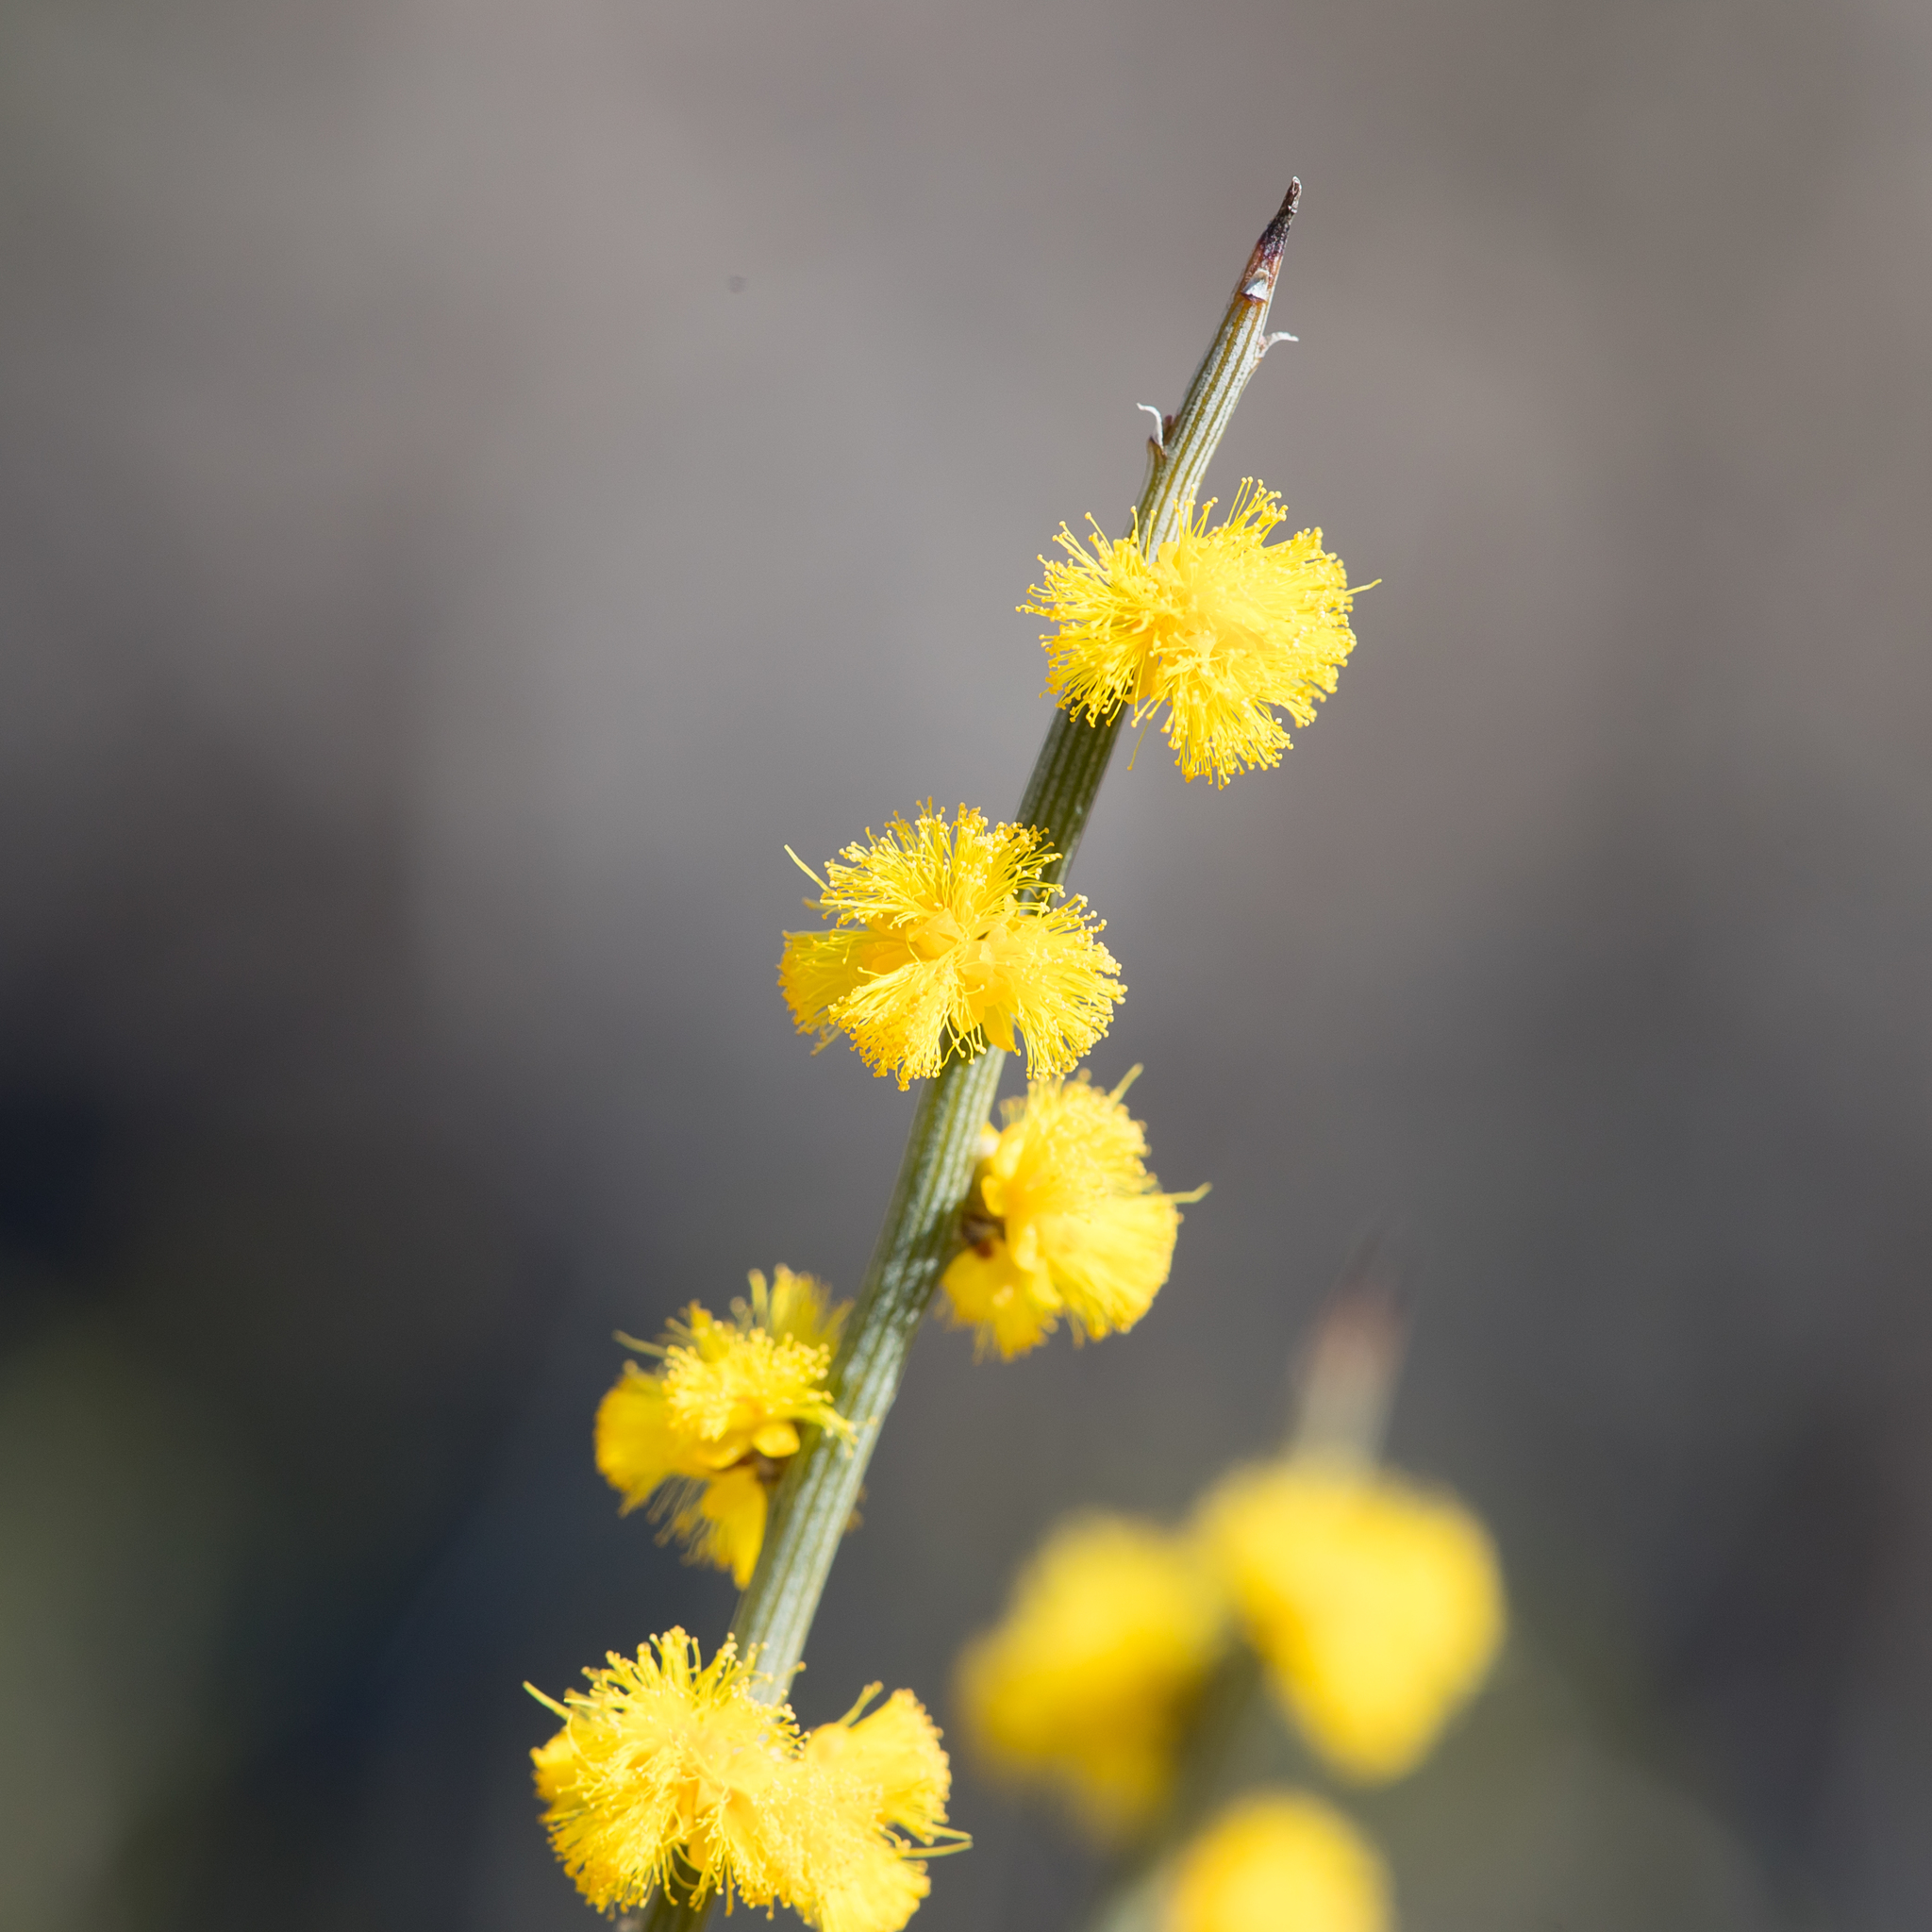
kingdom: Plantae
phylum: Tracheophyta
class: Magnoliopsida
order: Fabales
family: Fabaceae
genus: Acacia
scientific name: Acacia spinescens
